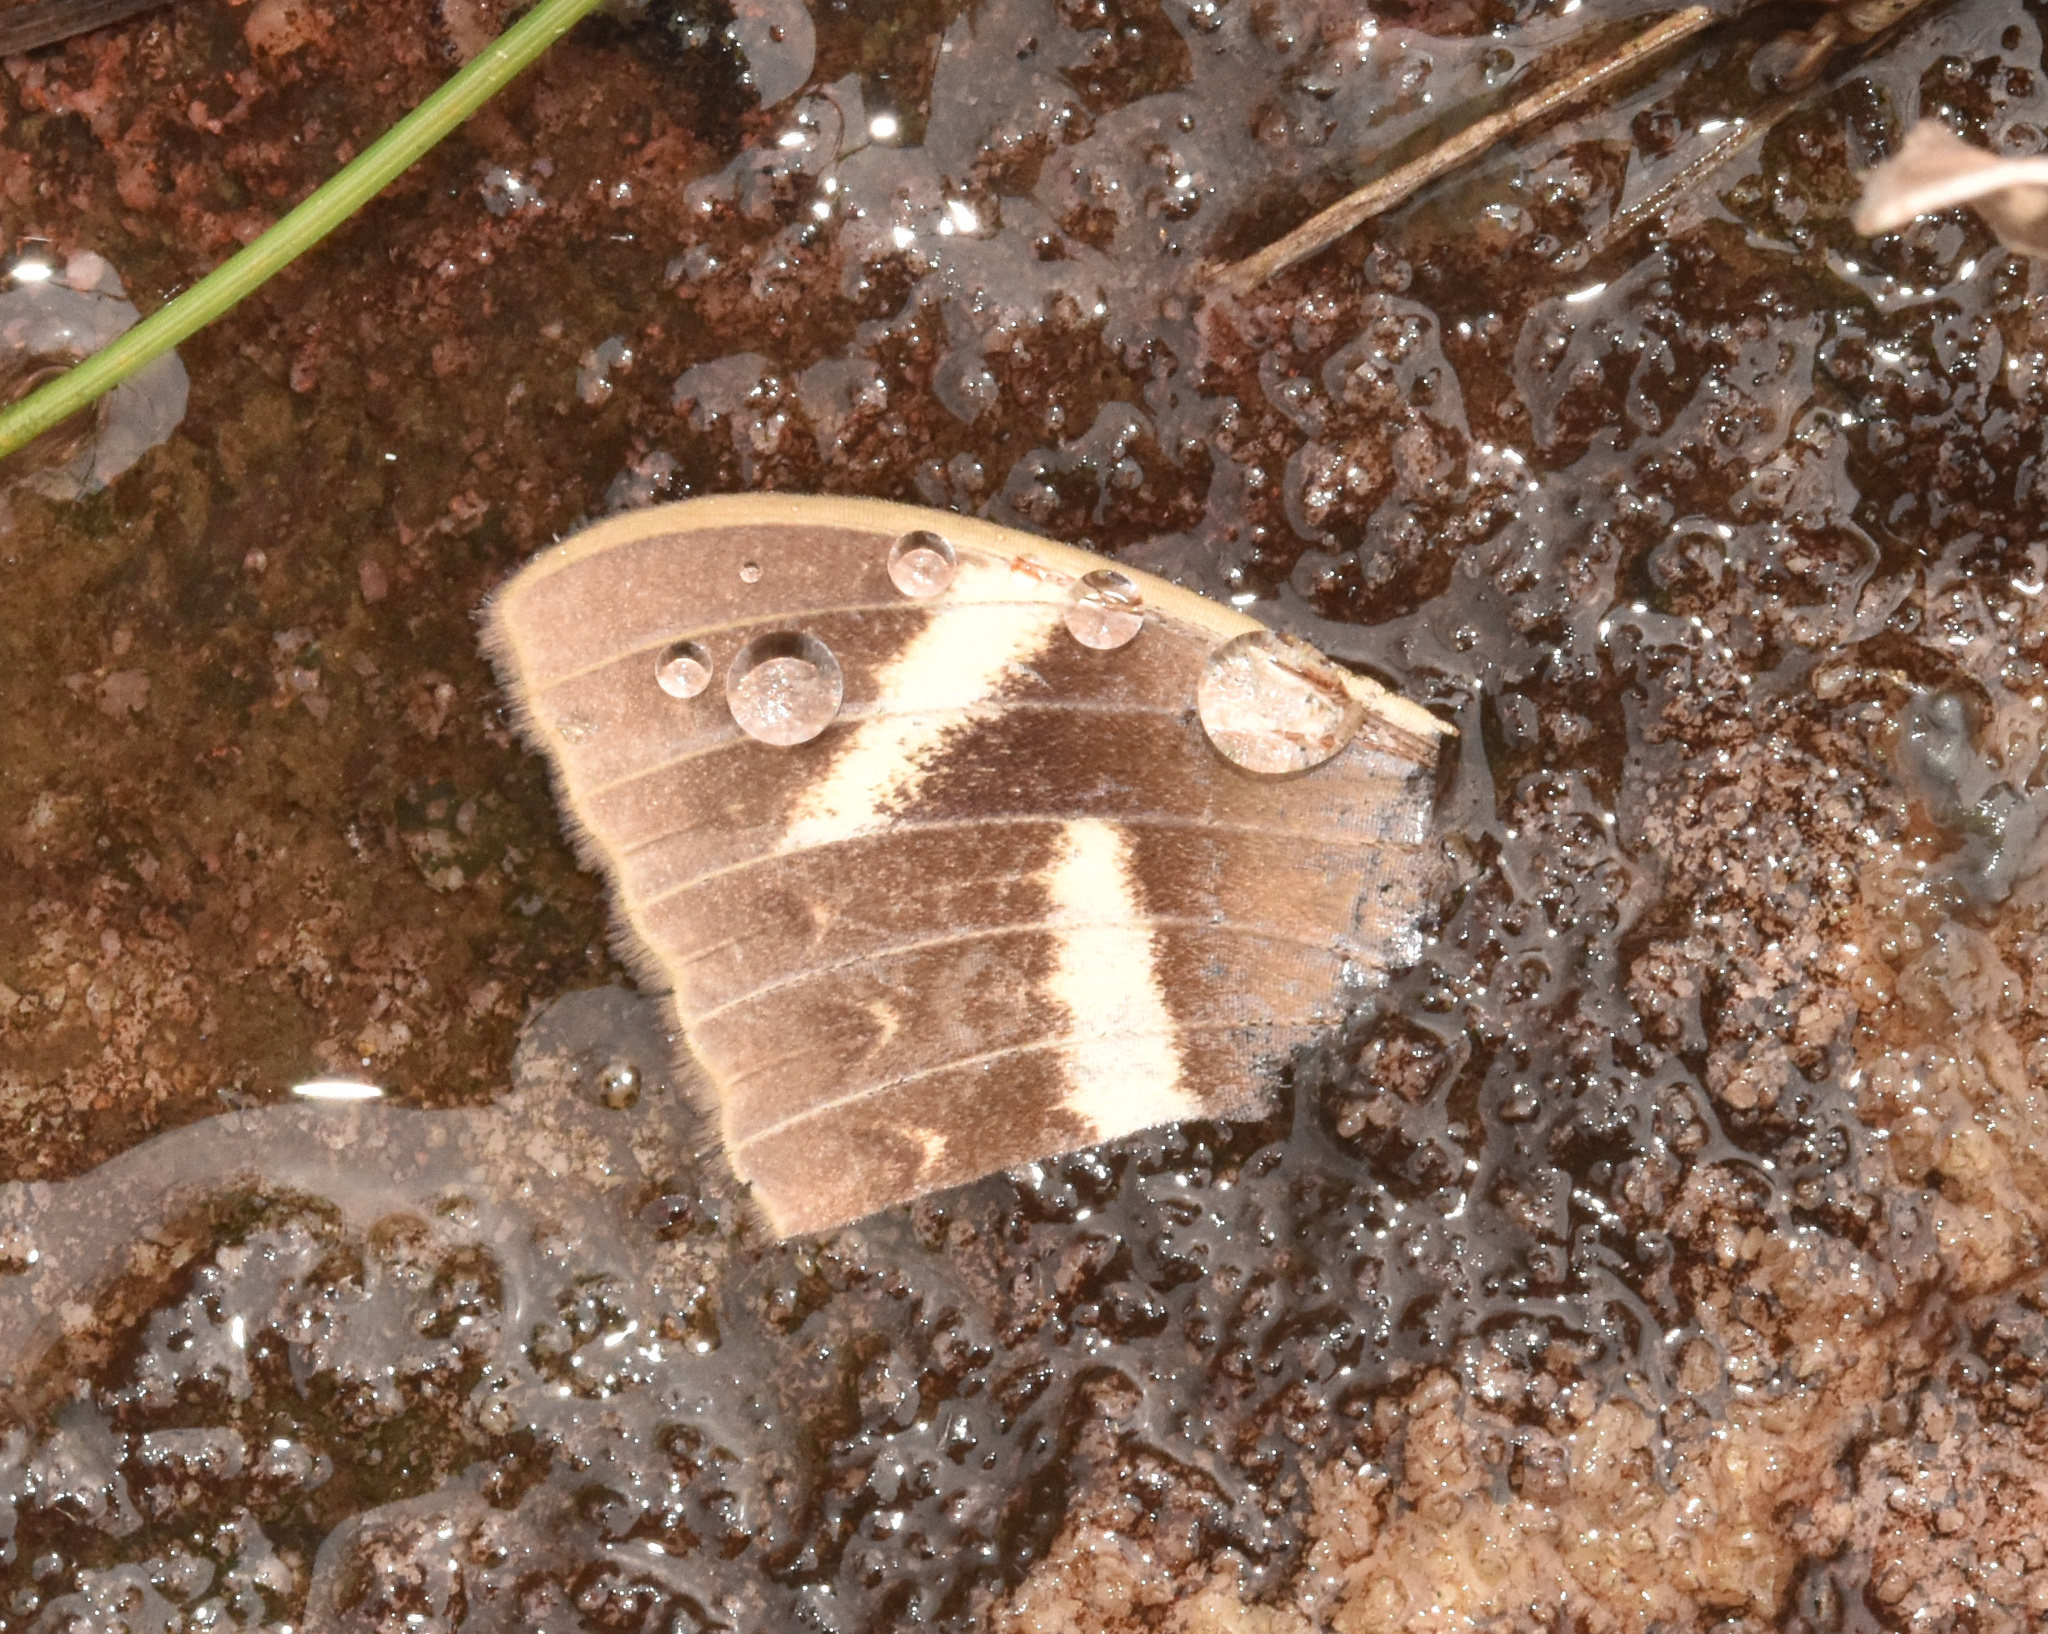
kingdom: Animalia
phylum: Arthropoda
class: Insecta
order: Lepidoptera
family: Erebidae
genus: Cyligramma
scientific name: Cyligramma latona
